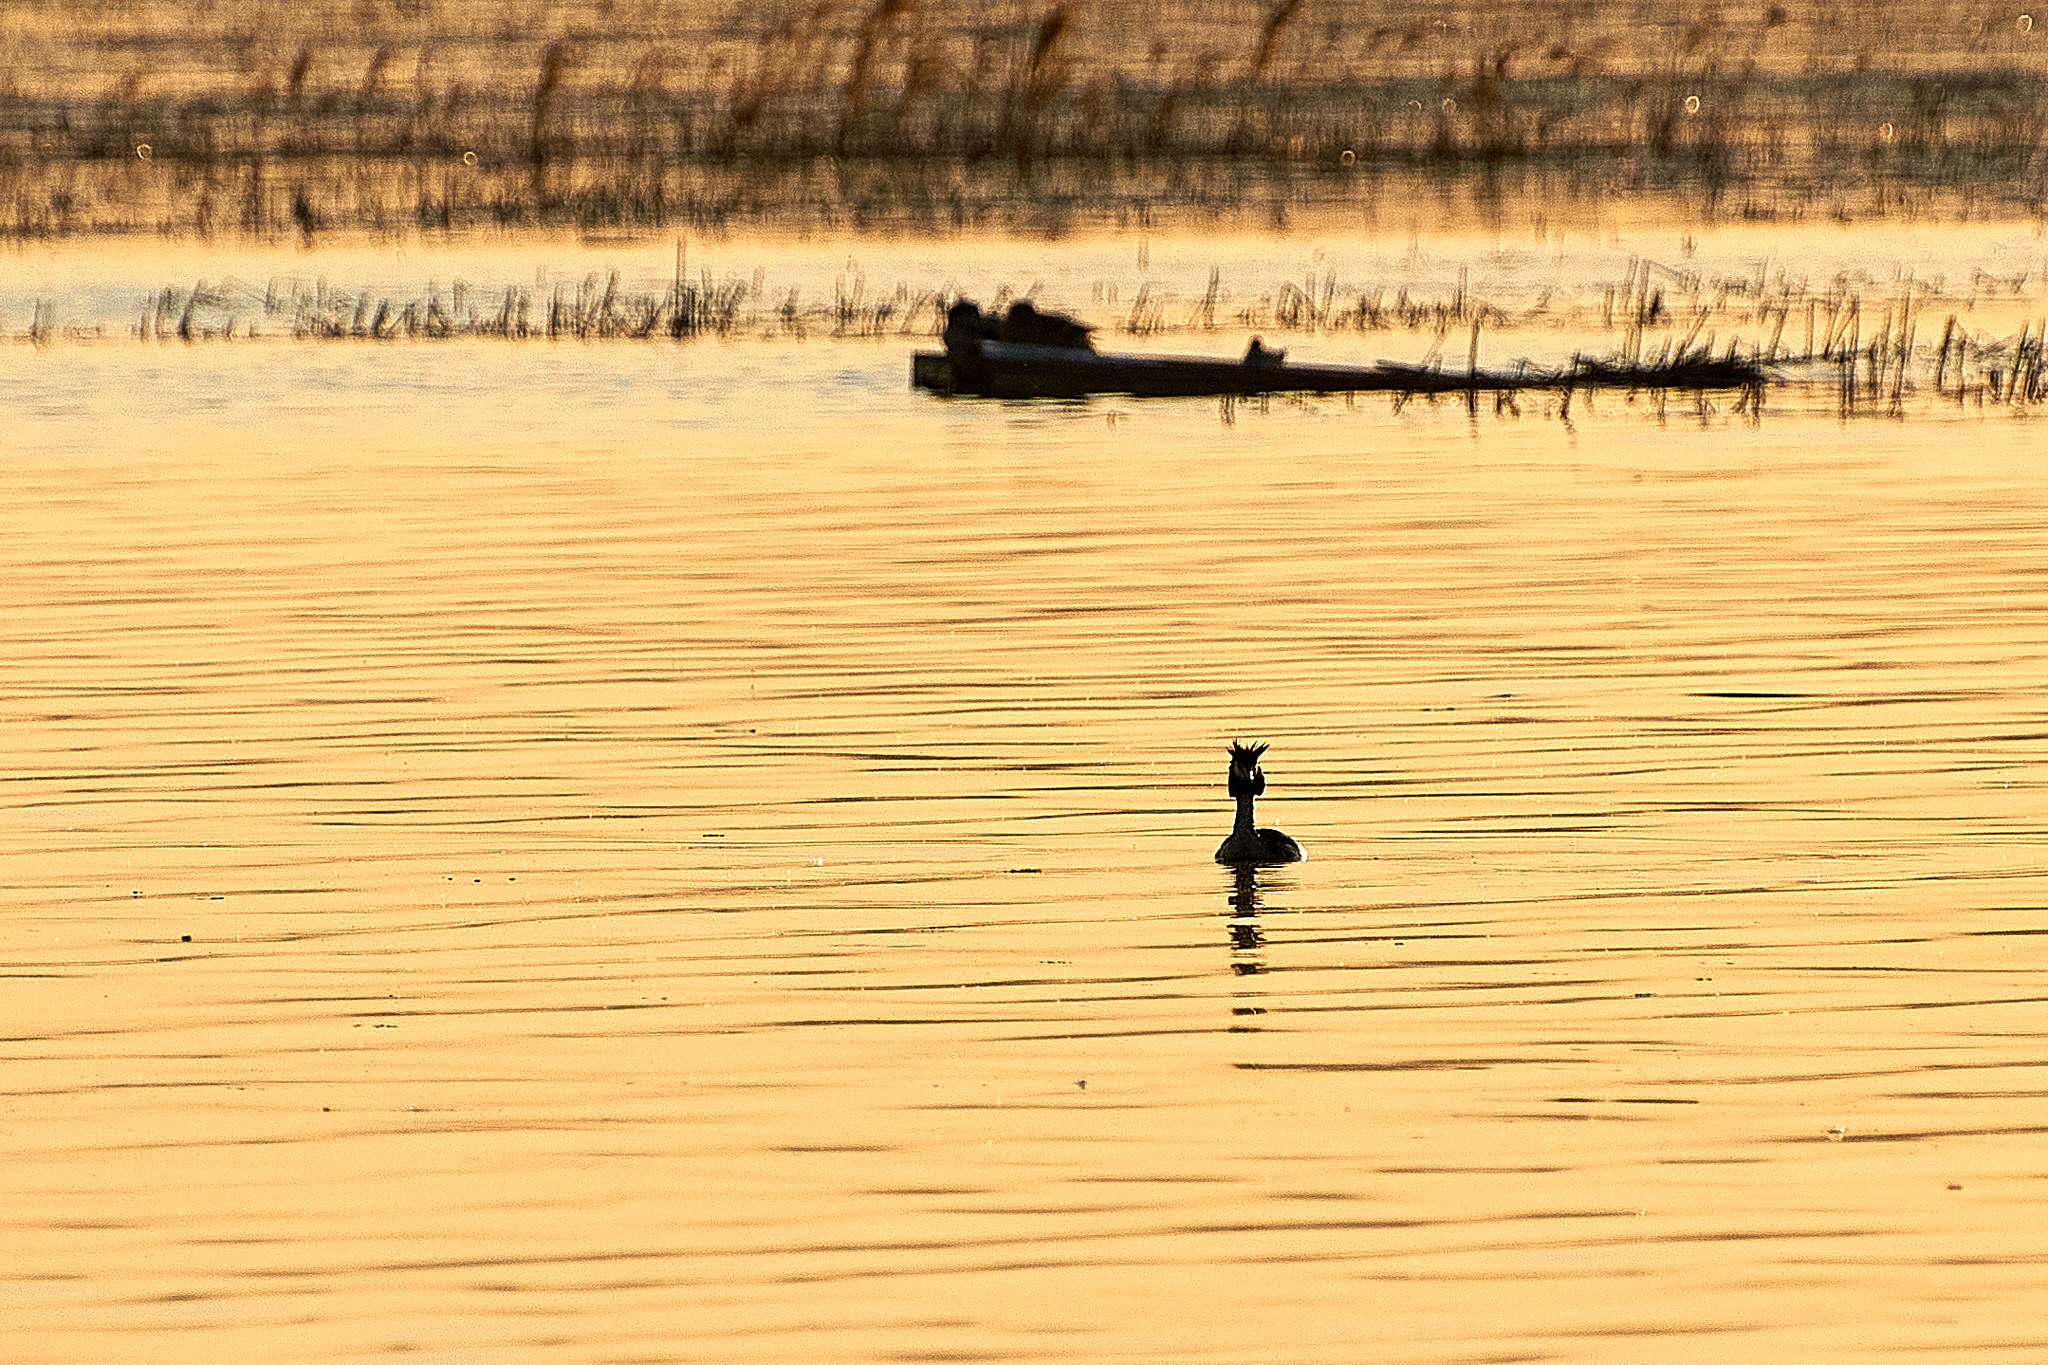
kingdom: Animalia
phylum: Chordata
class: Aves
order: Podicipediformes
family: Podicipedidae
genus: Podiceps
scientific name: Podiceps cristatus
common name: Great crested grebe
